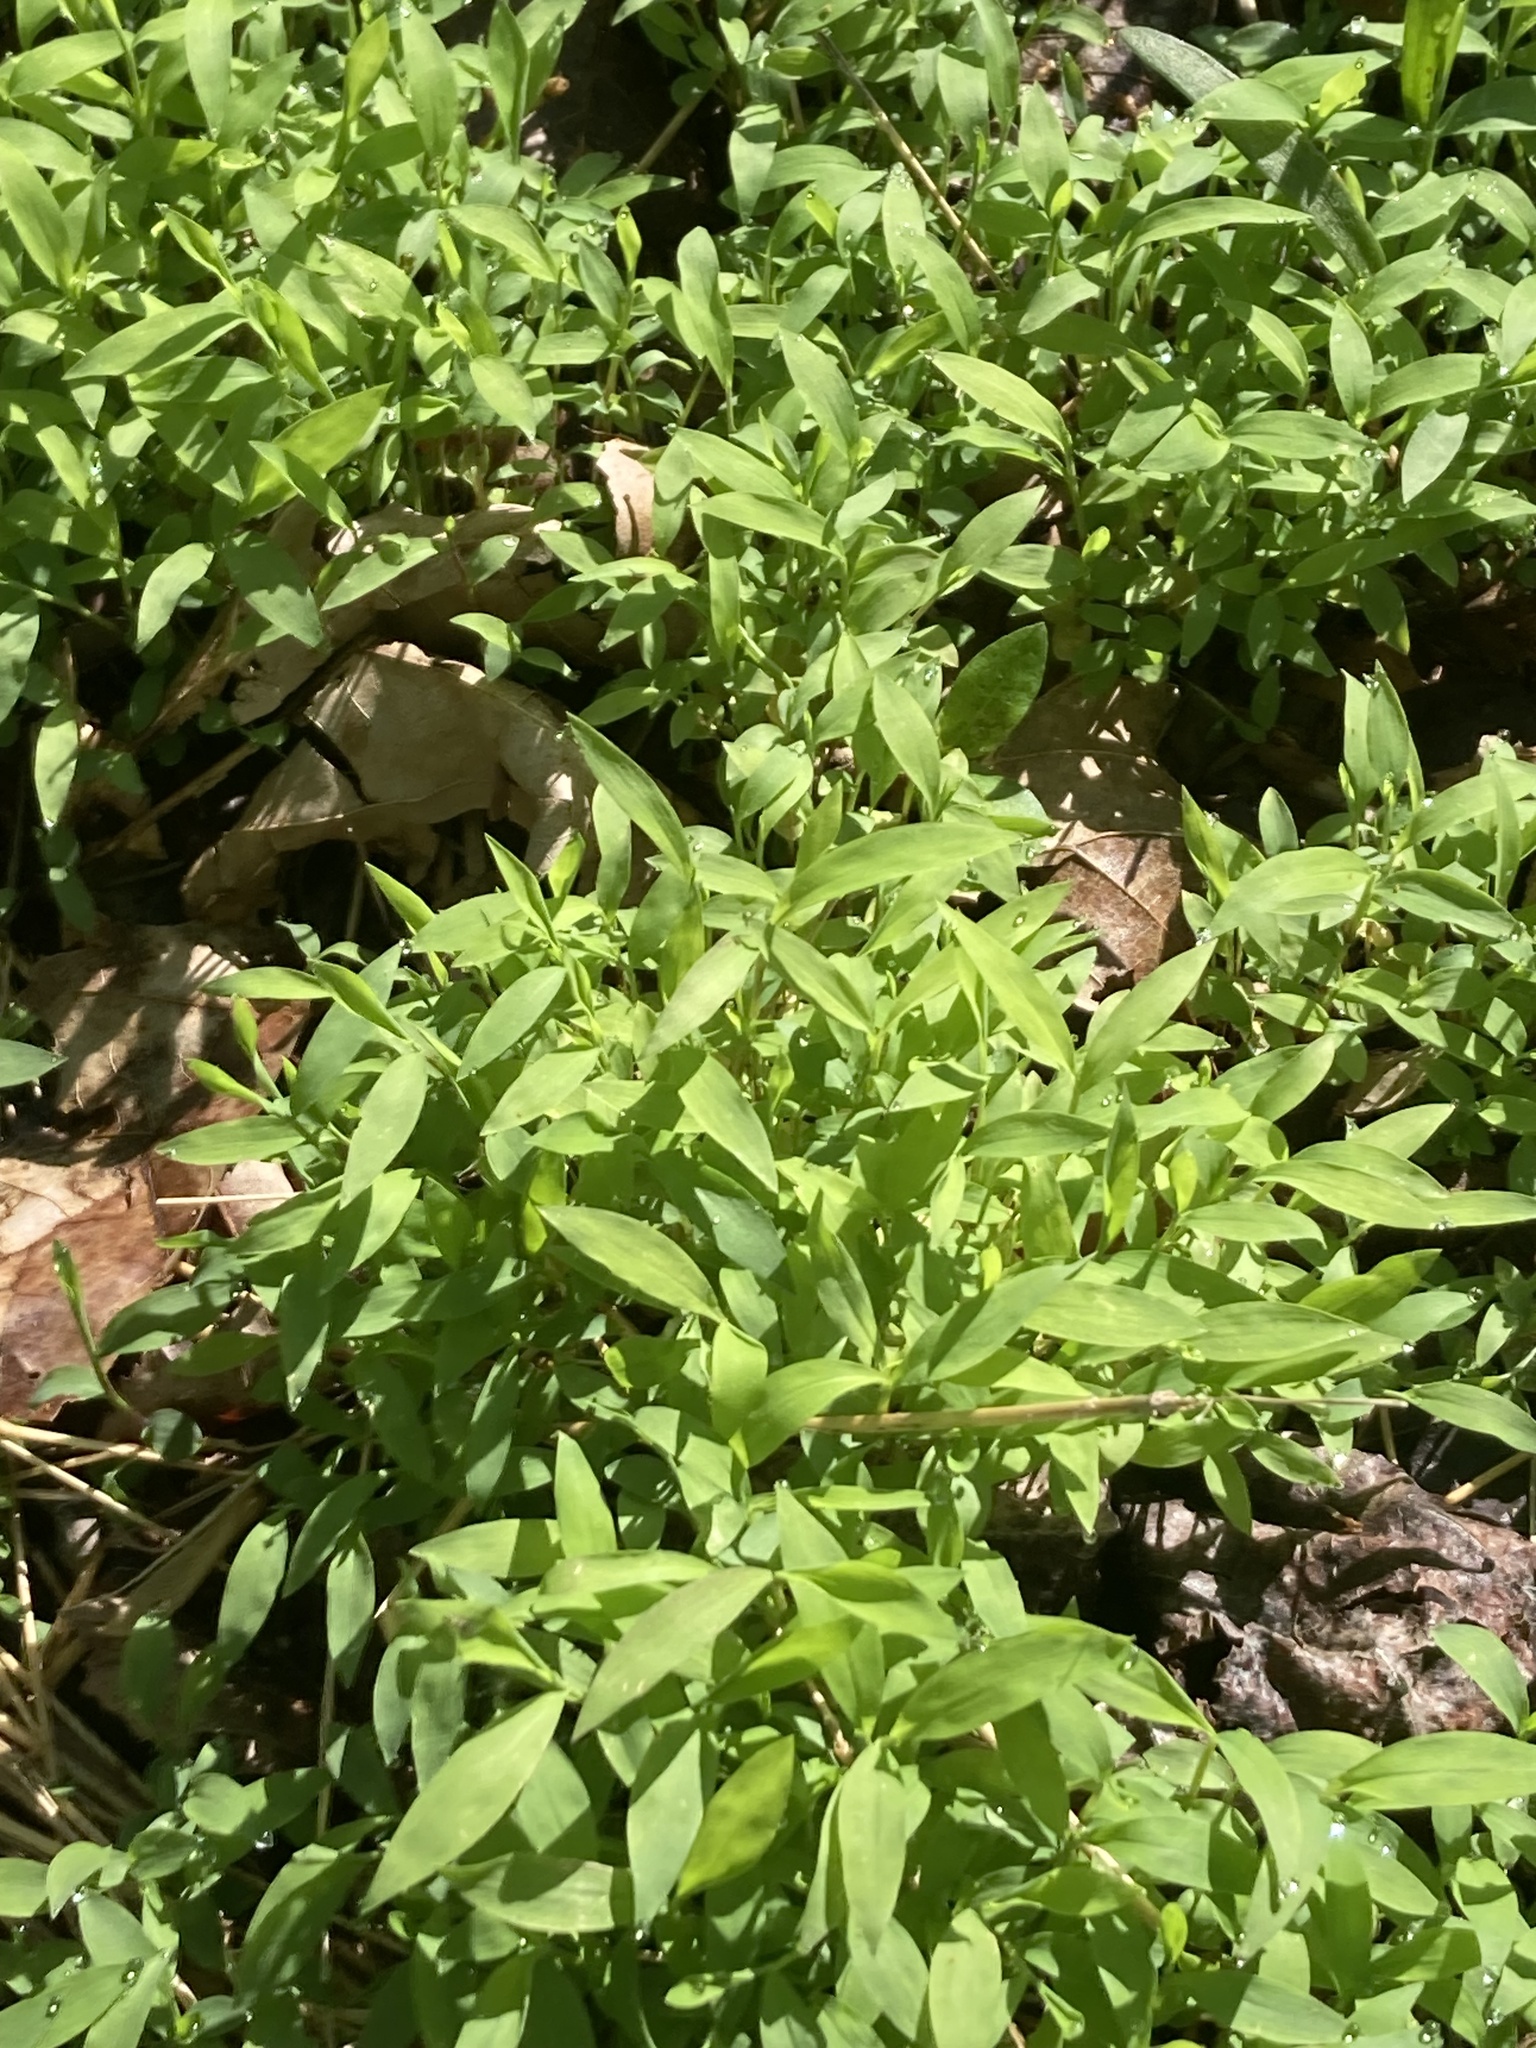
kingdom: Plantae
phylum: Tracheophyta
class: Liliopsida
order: Poales
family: Poaceae
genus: Microstegium
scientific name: Microstegium vimineum
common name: Japanese stiltgrass
